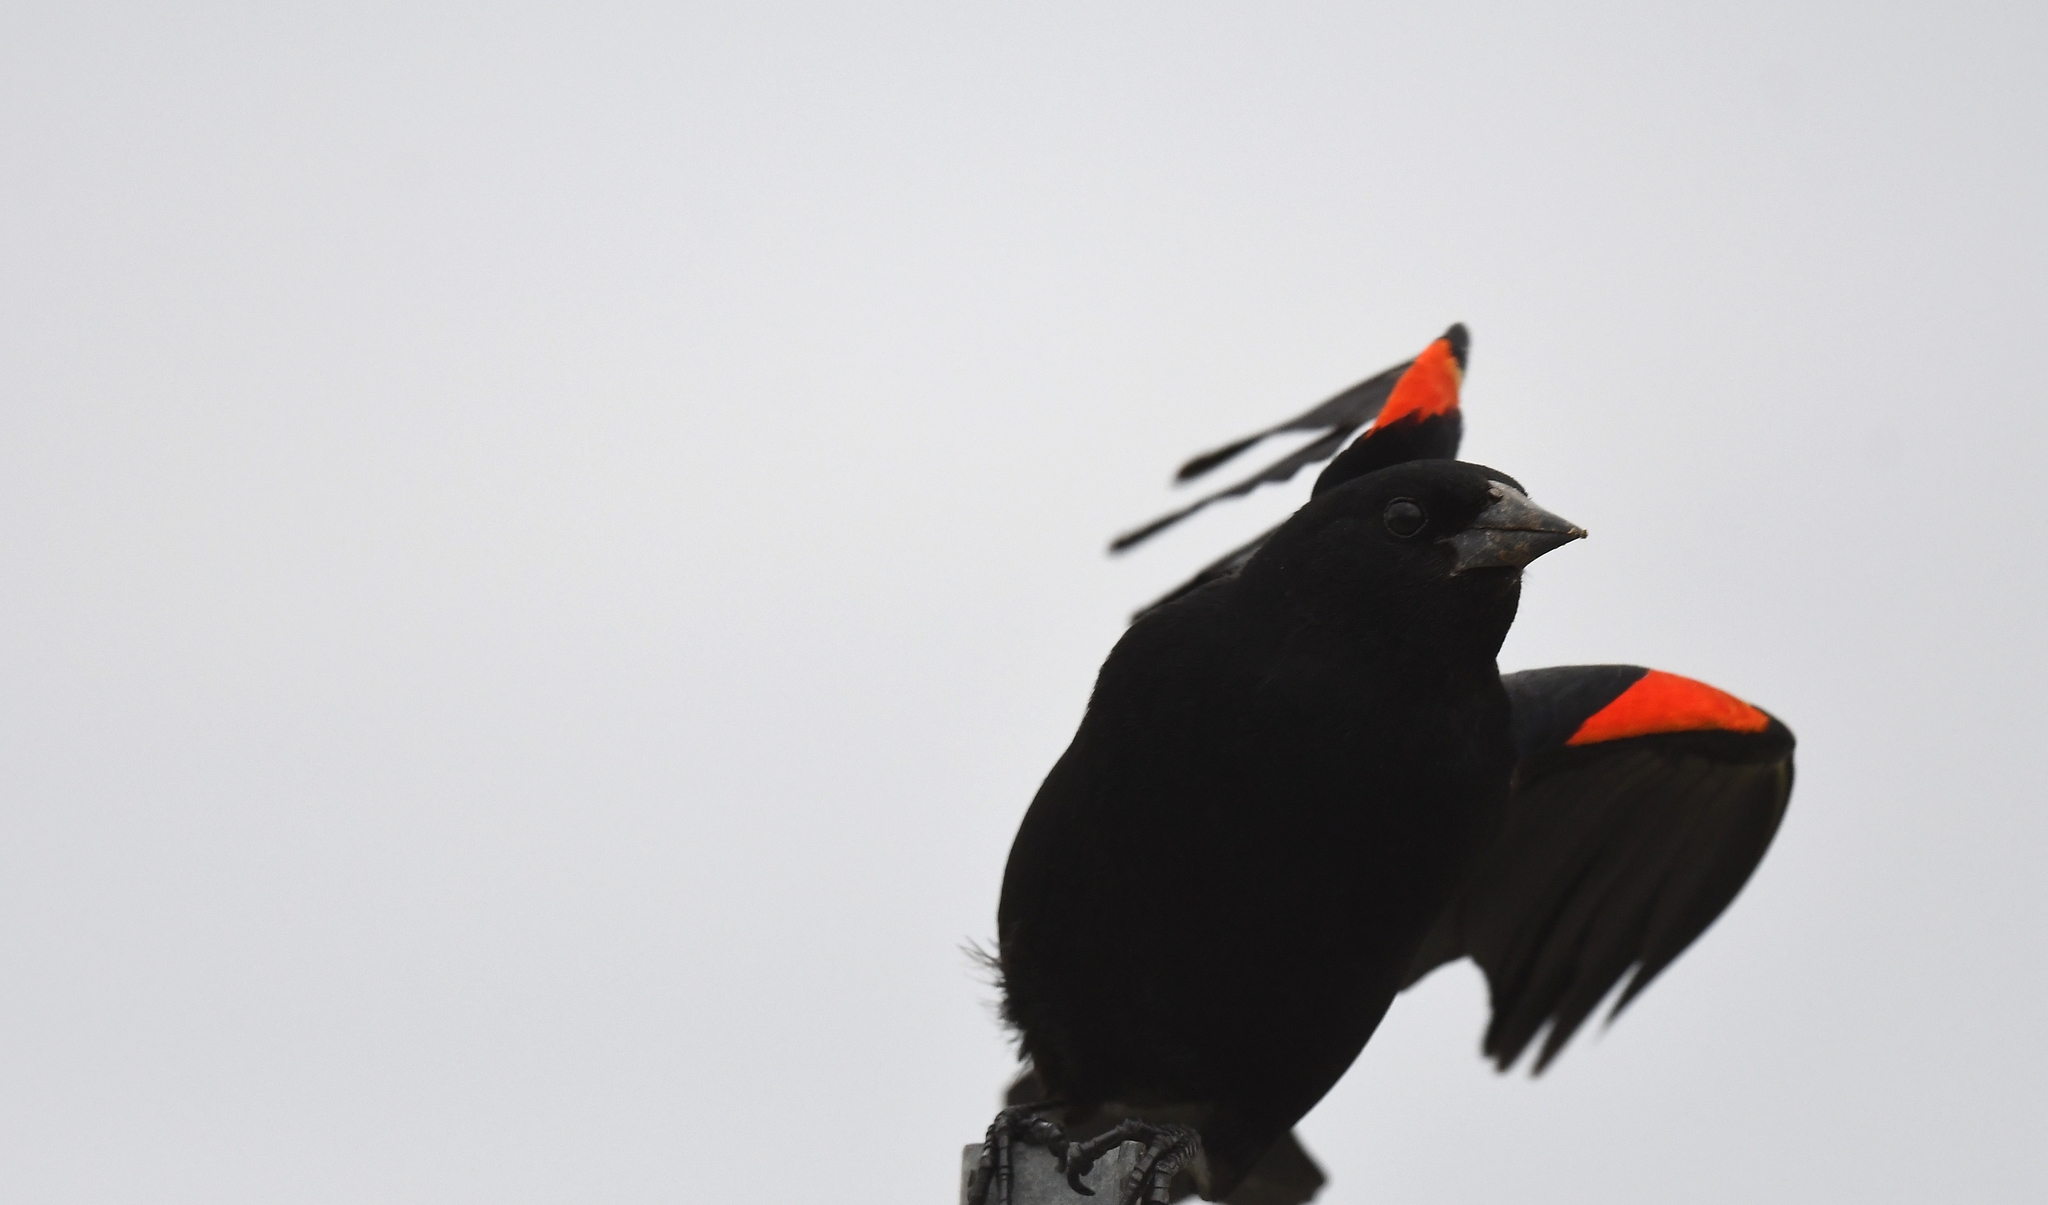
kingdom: Animalia
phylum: Chordata
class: Aves
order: Passeriformes
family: Icteridae
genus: Agelaius
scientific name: Agelaius phoeniceus
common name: Red-winged blackbird
